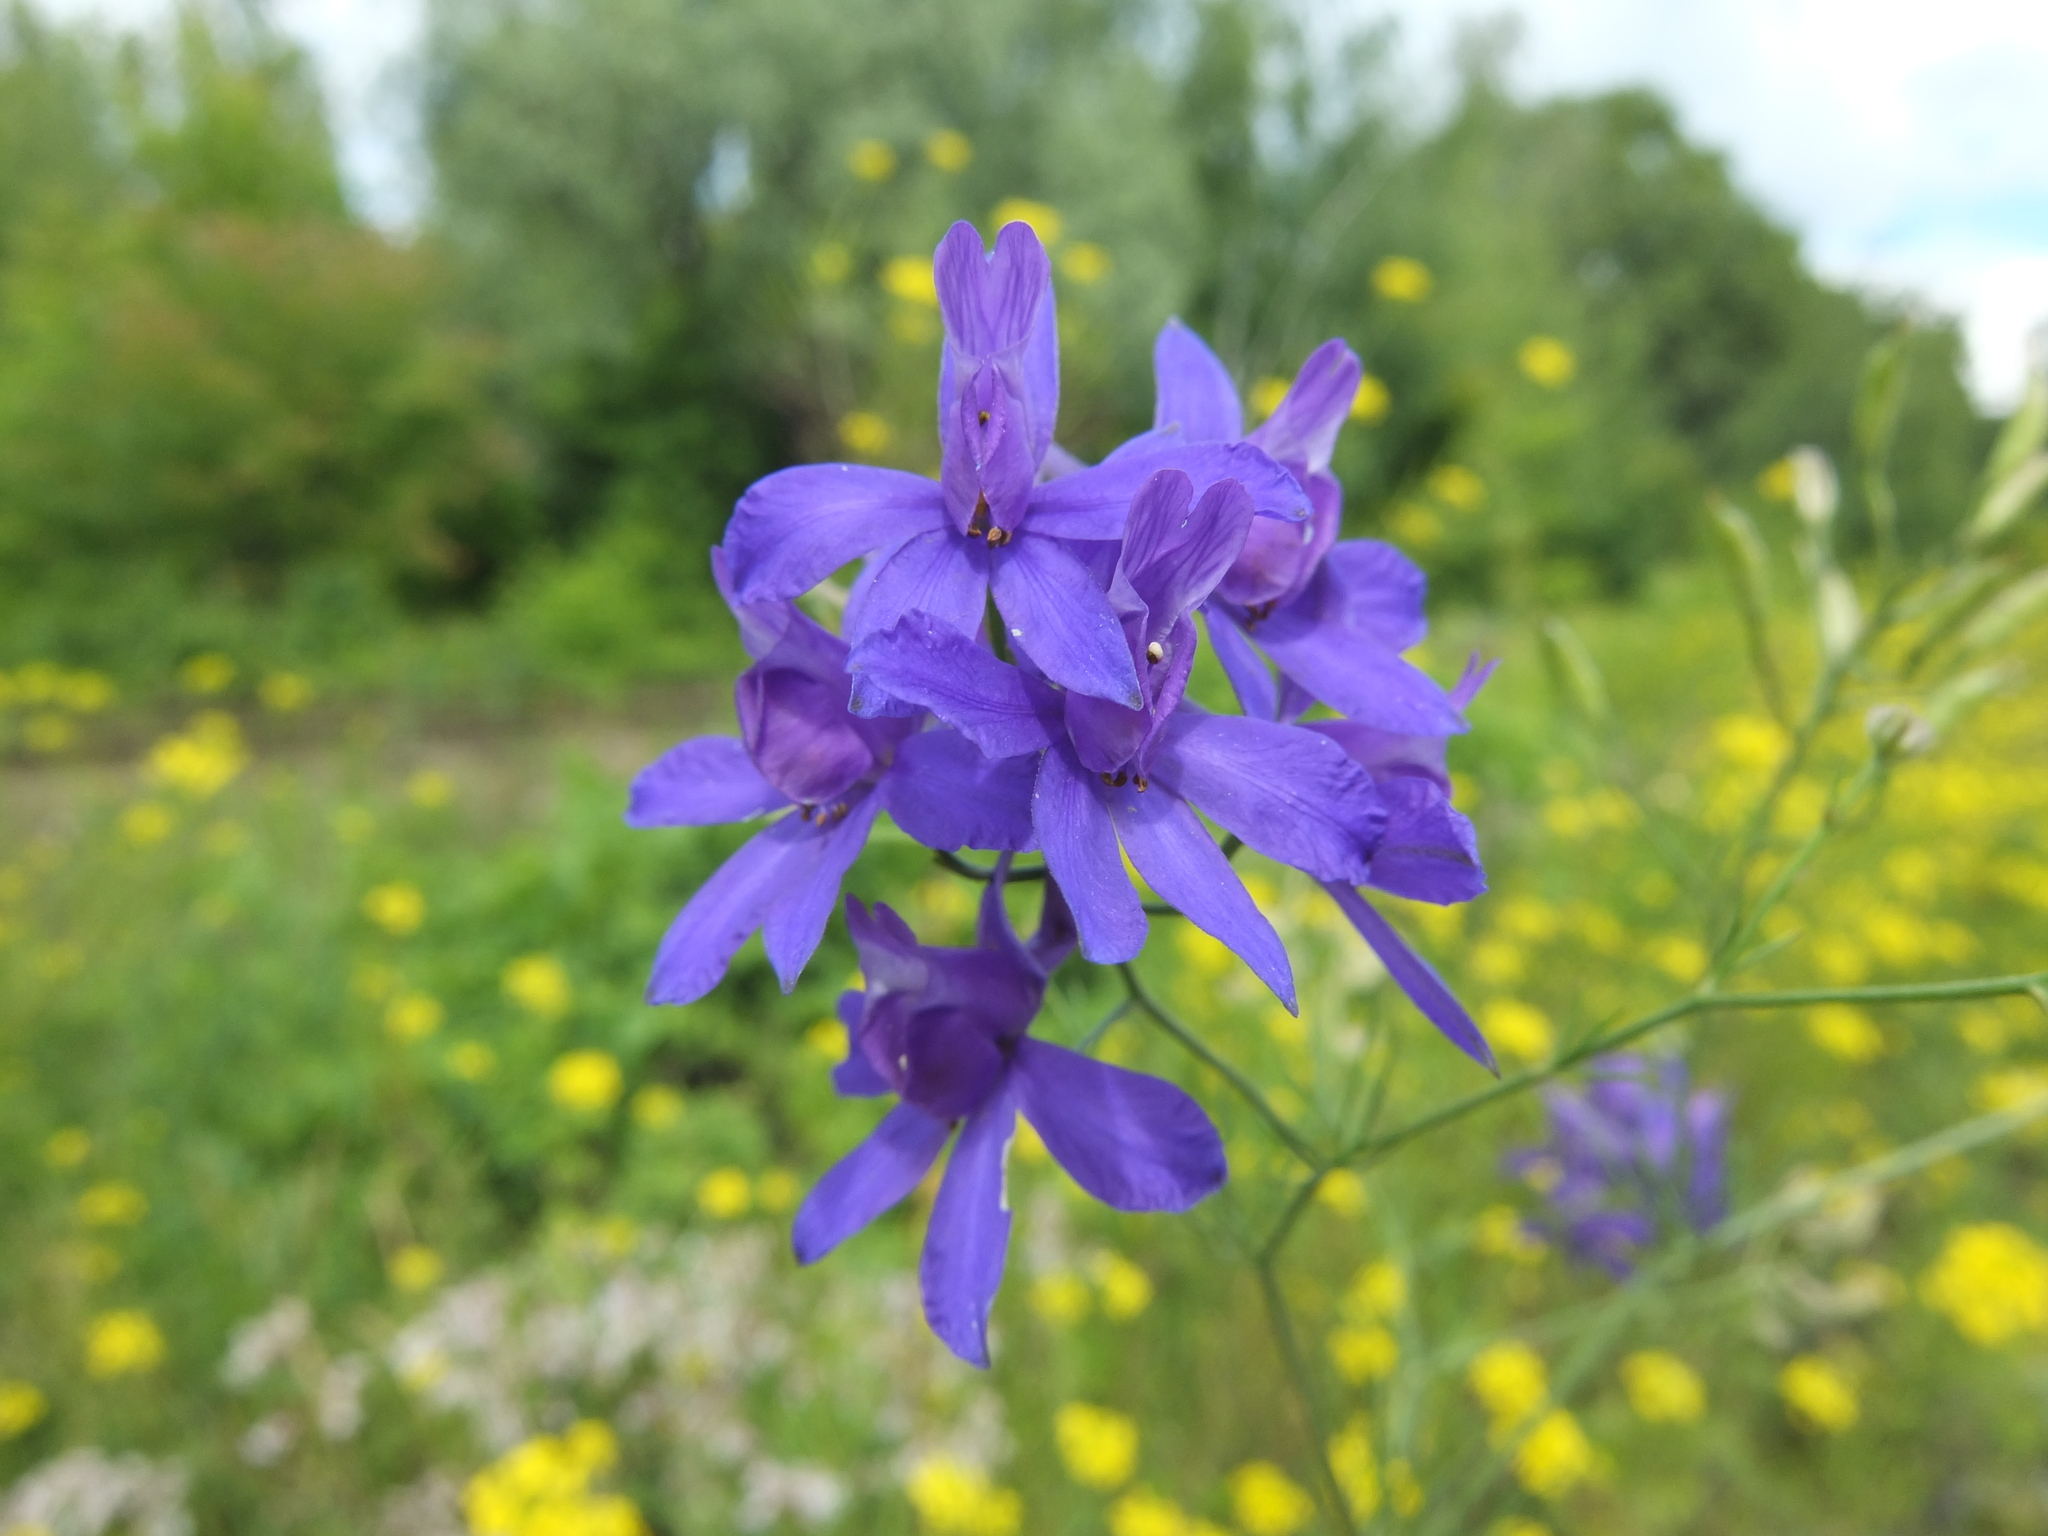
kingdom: Plantae
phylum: Tracheophyta
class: Magnoliopsida
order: Ranunculales
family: Ranunculaceae
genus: Delphinium
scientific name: Delphinium consolida
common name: Branching larkspur
